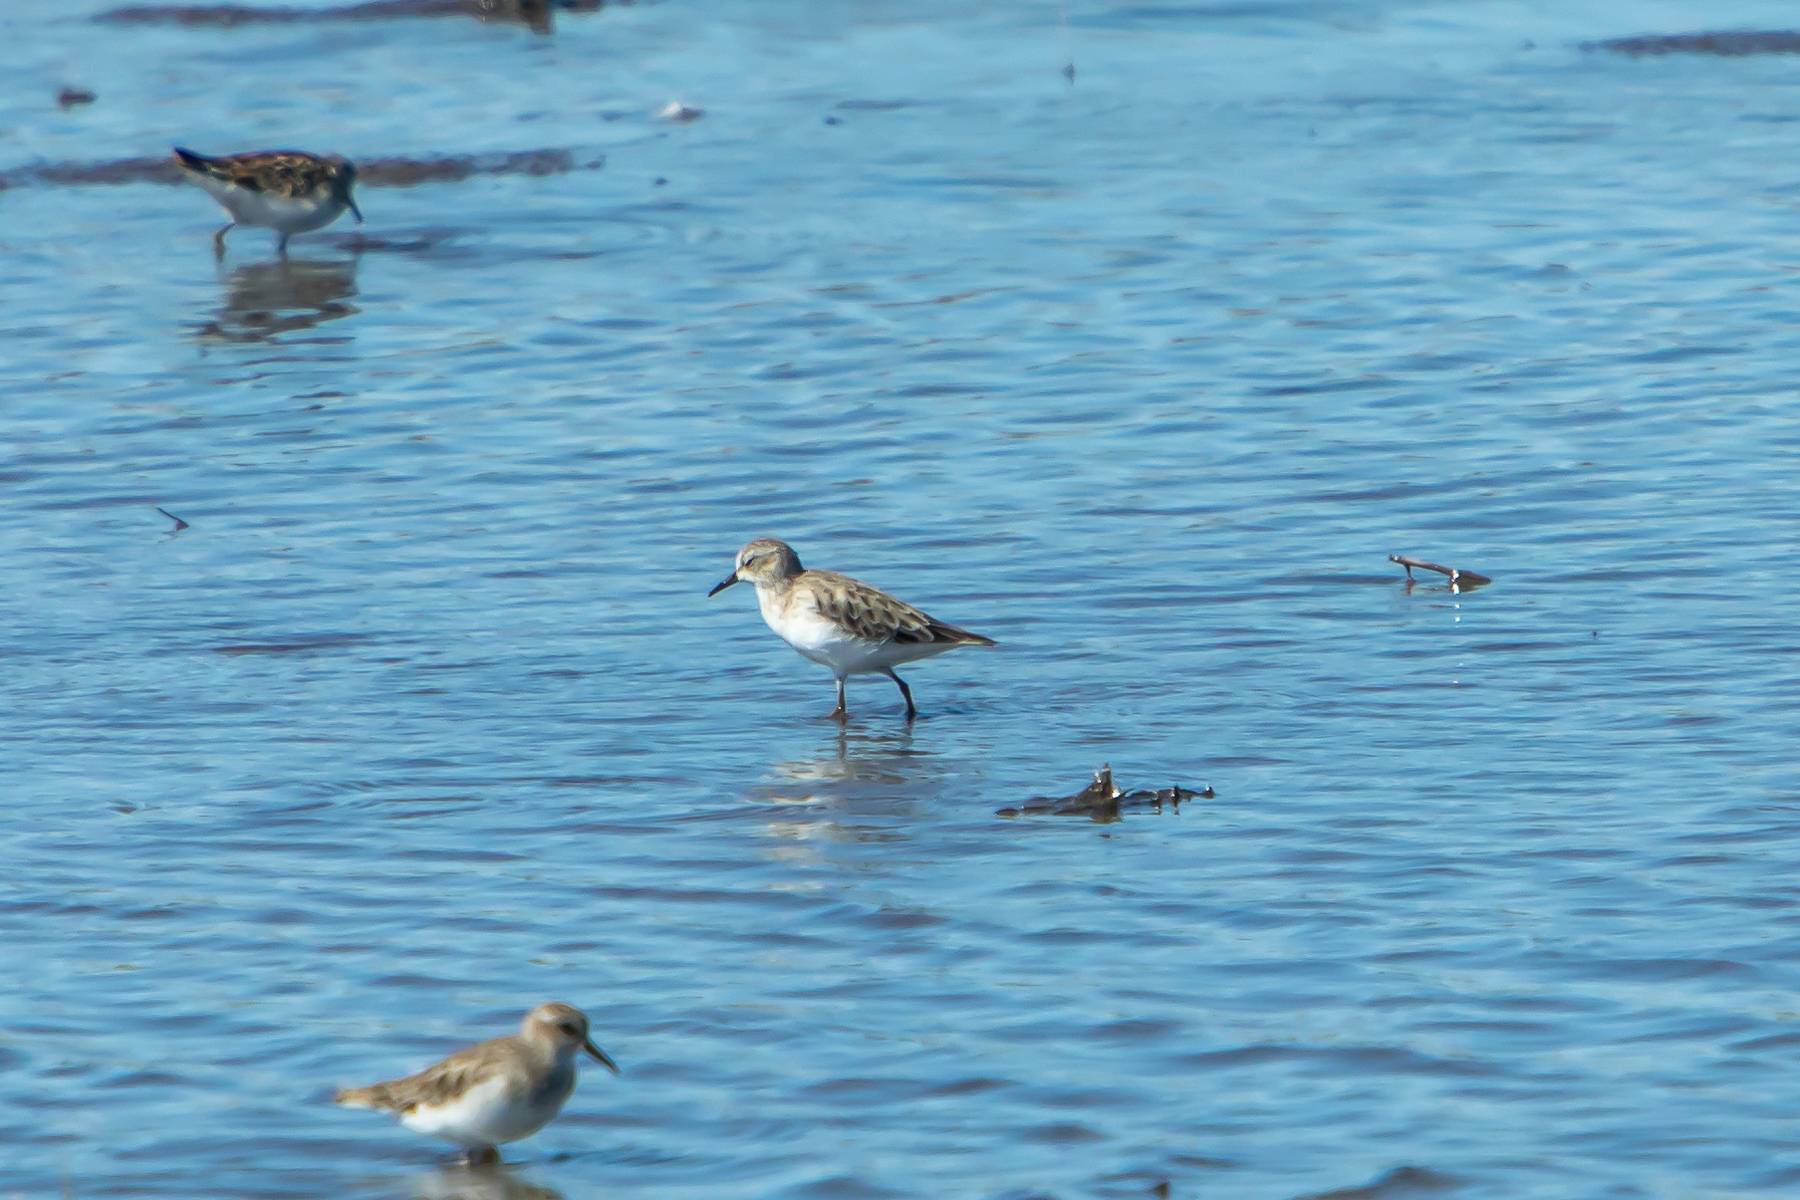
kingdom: Animalia
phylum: Chordata
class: Aves
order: Charadriiformes
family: Scolopacidae
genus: Calidris
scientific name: Calidris pusilla
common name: Semipalmated sandpiper
